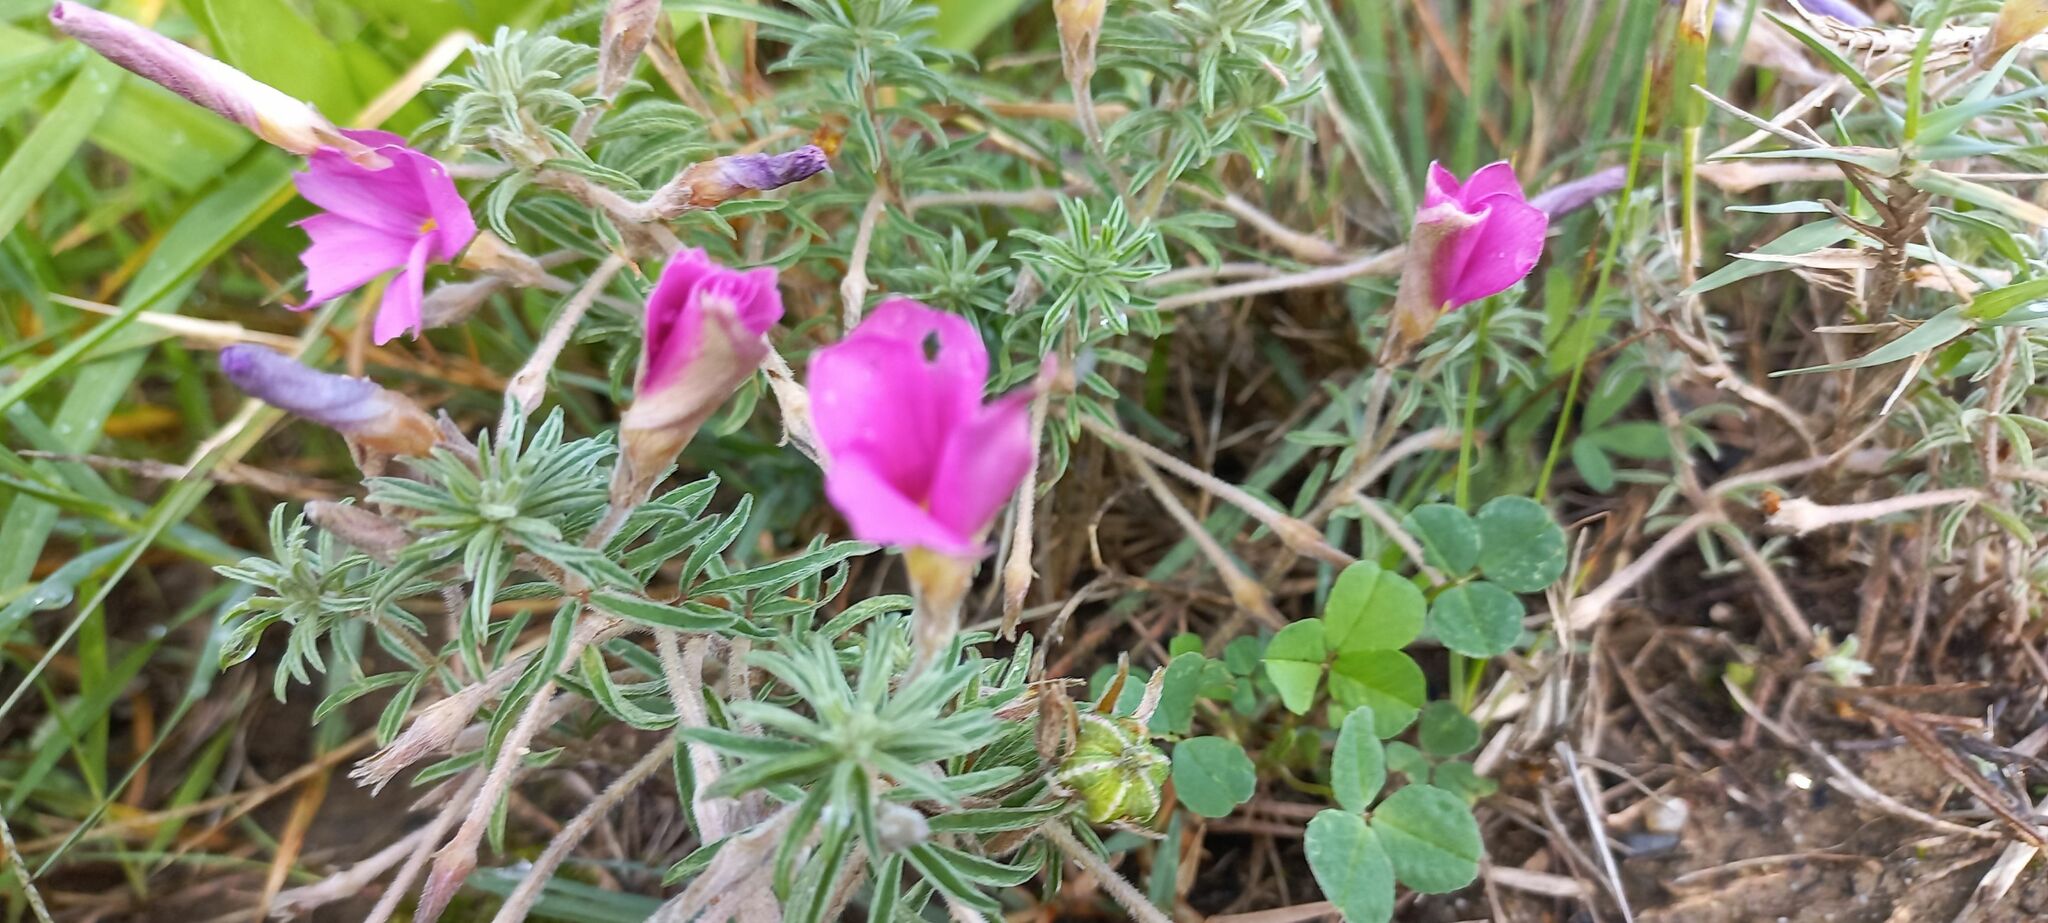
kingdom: Plantae
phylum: Tracheophyta
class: Magnoliopsida
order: Oxalidales
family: Oxalidaceae
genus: Oxalis
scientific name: Oxalis hirta
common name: Tropical woodsorrel
